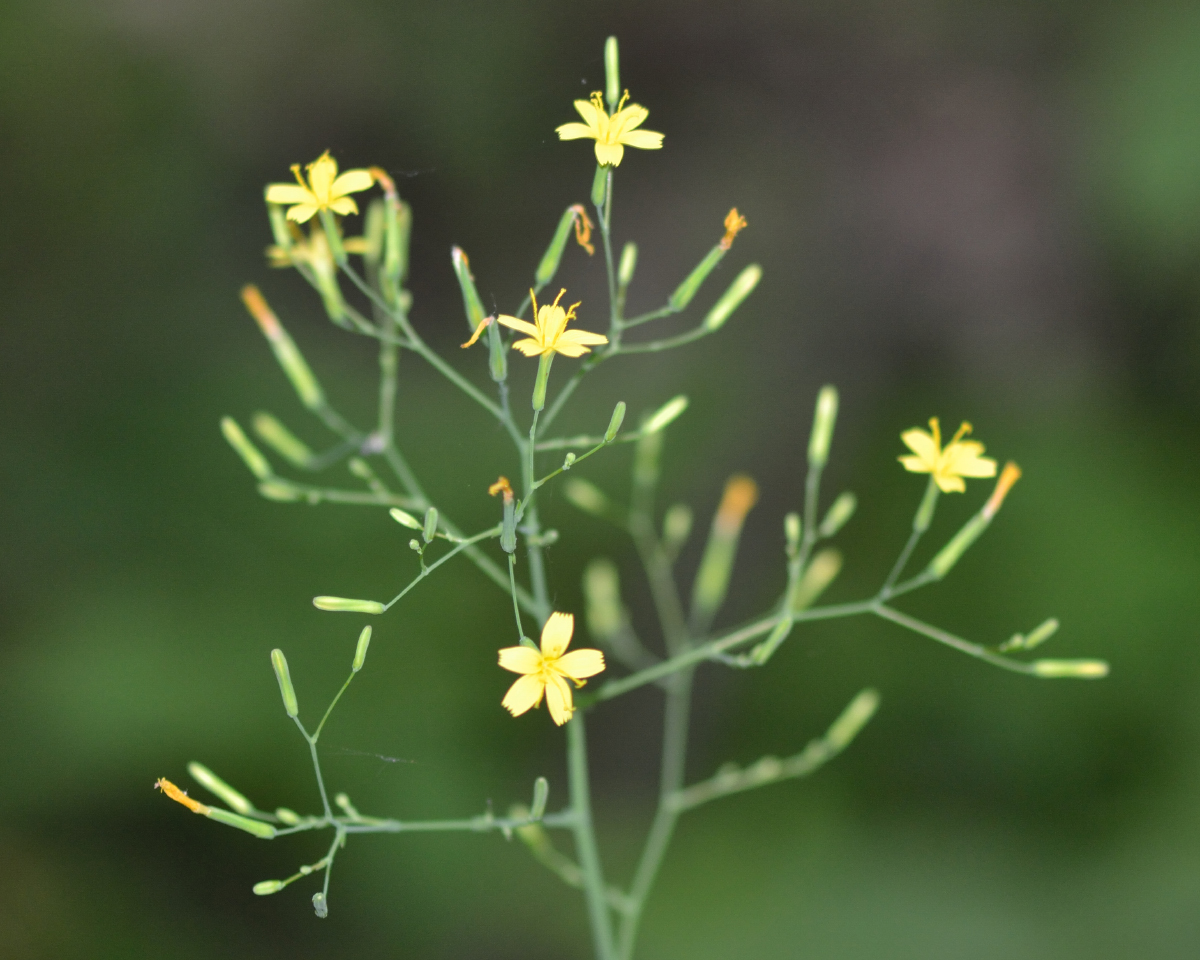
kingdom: Plantae
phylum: Tracheophyta
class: Magnoliopsida
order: Asterales
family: Asteraceae
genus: Mycelis
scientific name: Mycelis muralis
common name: Wall lettuce
